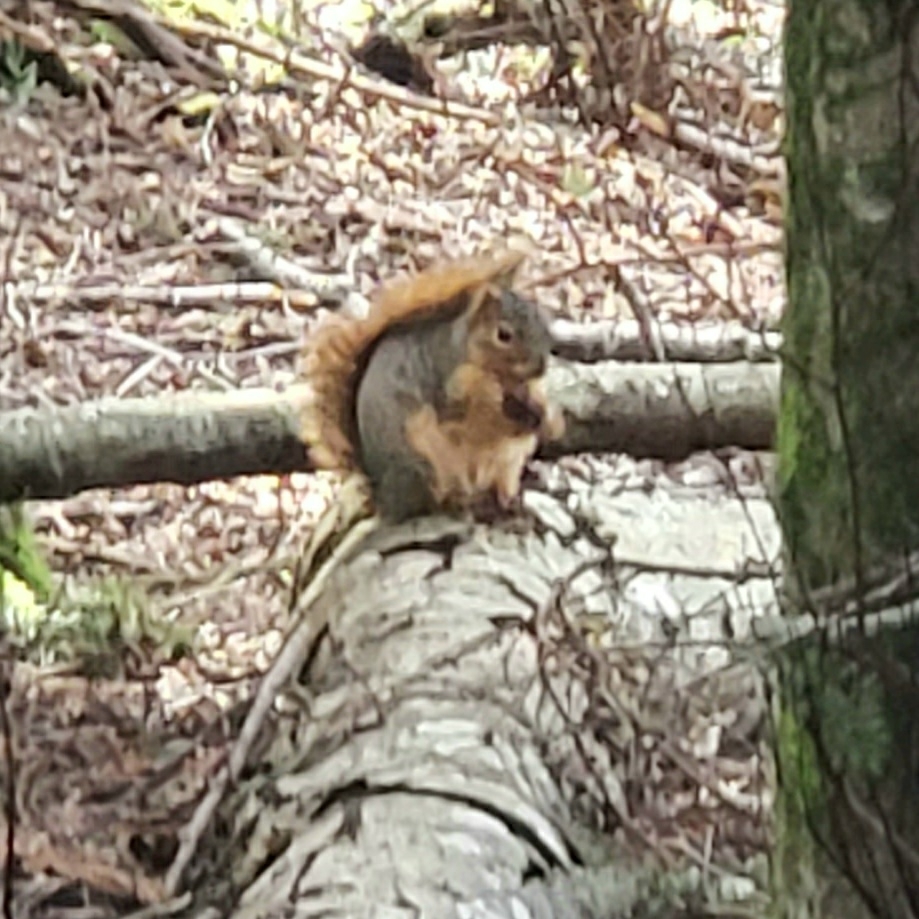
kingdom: Animalia
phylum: Chordata
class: Mammalia
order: Rodentia
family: Sciuridae
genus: Sciurus
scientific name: Sciurus niger
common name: Fox squirrel
